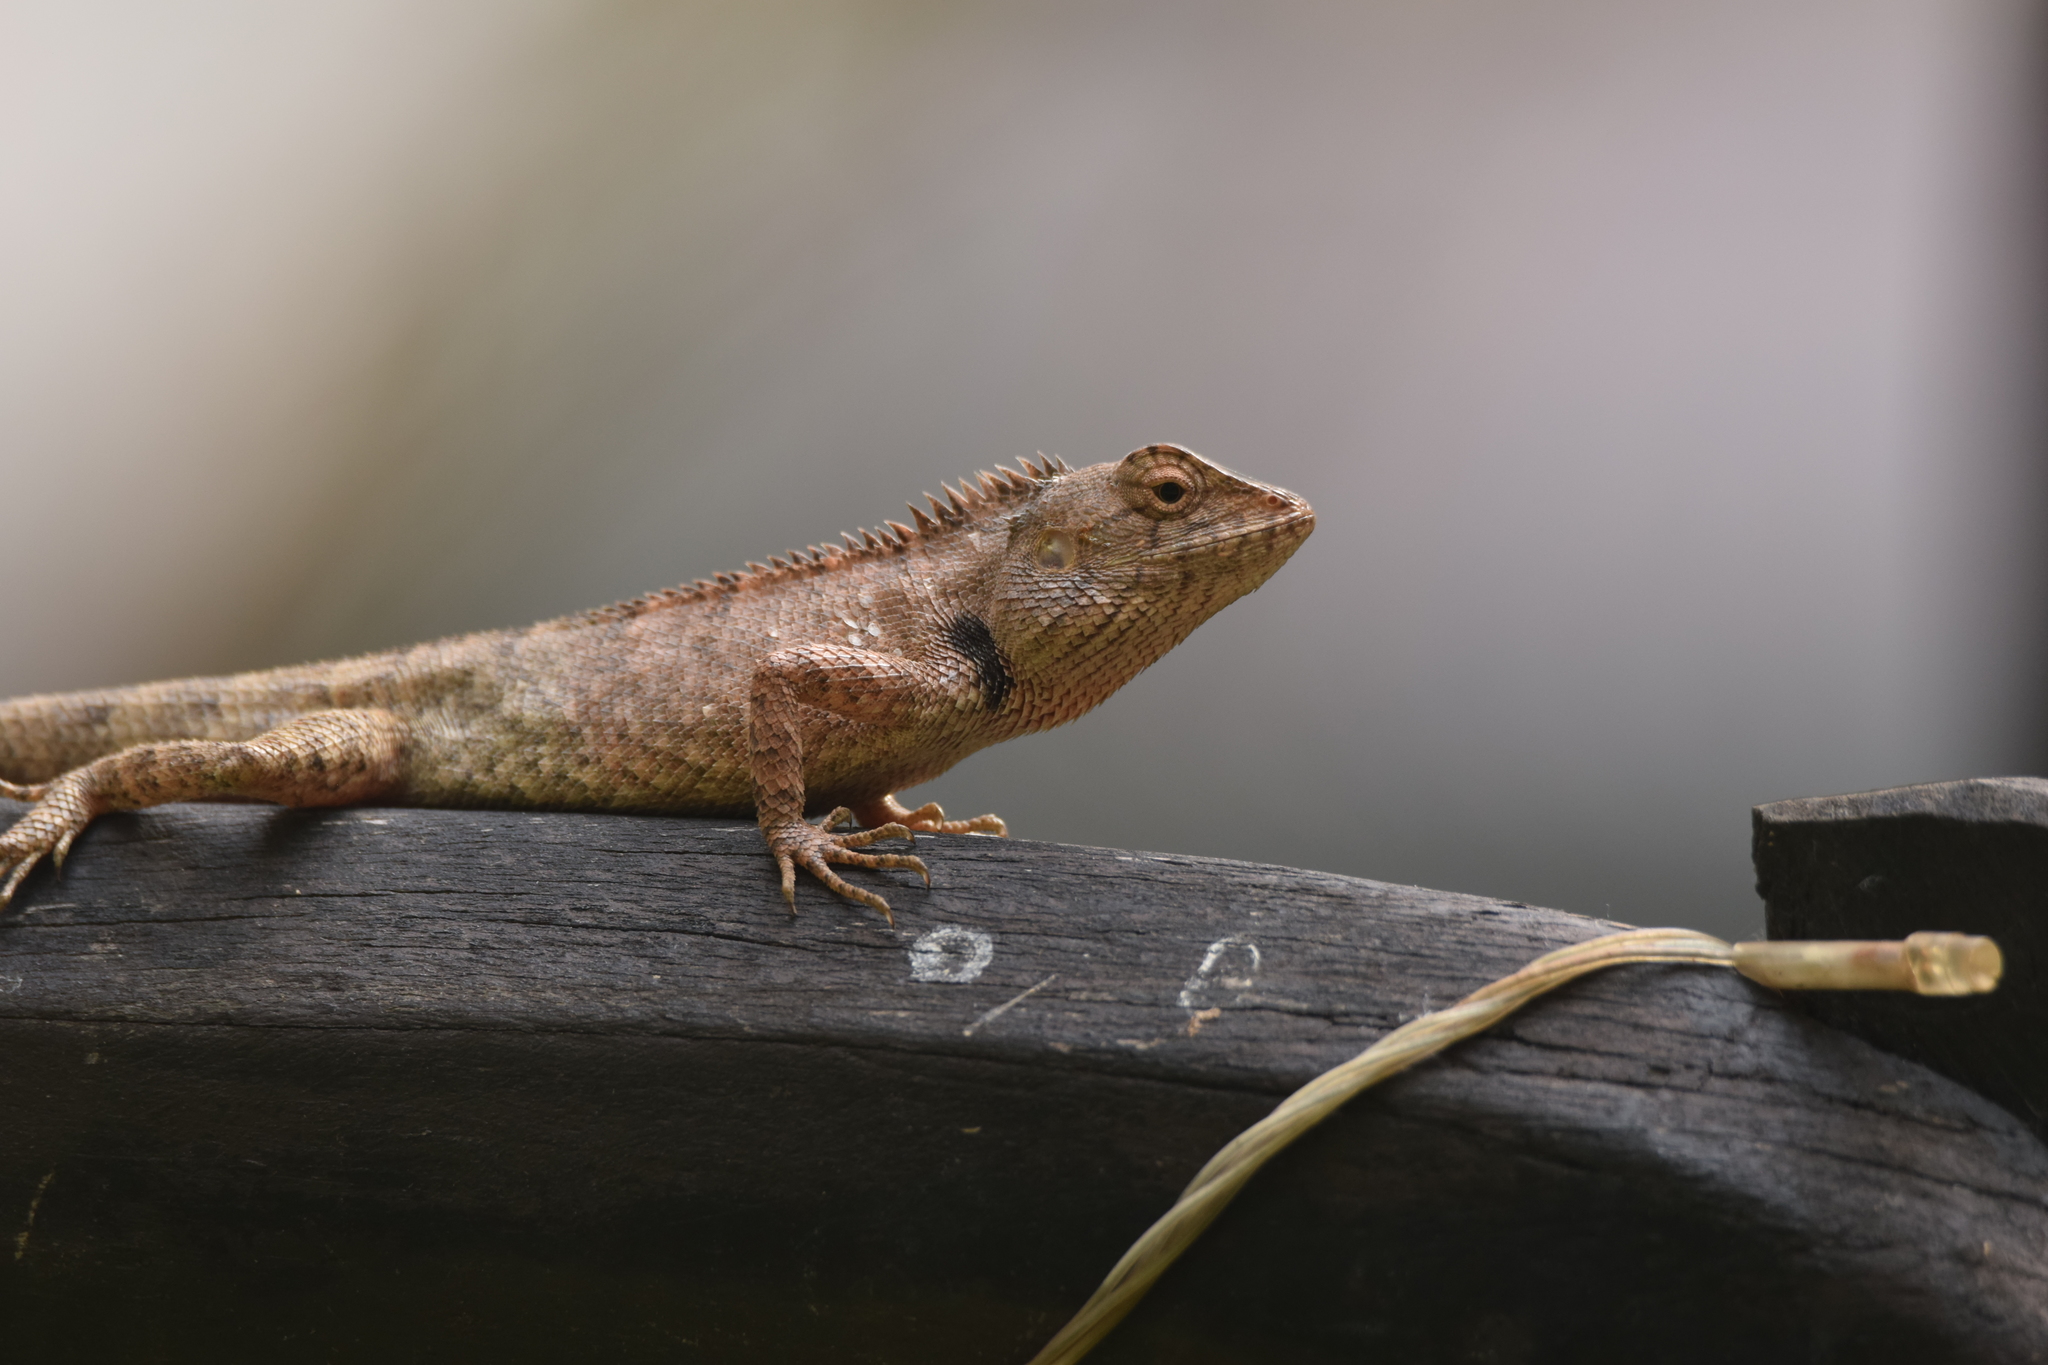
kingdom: Animalia
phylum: Chordata
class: Squamata
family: Agamidae
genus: Calotes
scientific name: Calotes versicolor
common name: Oriental garden lizard
